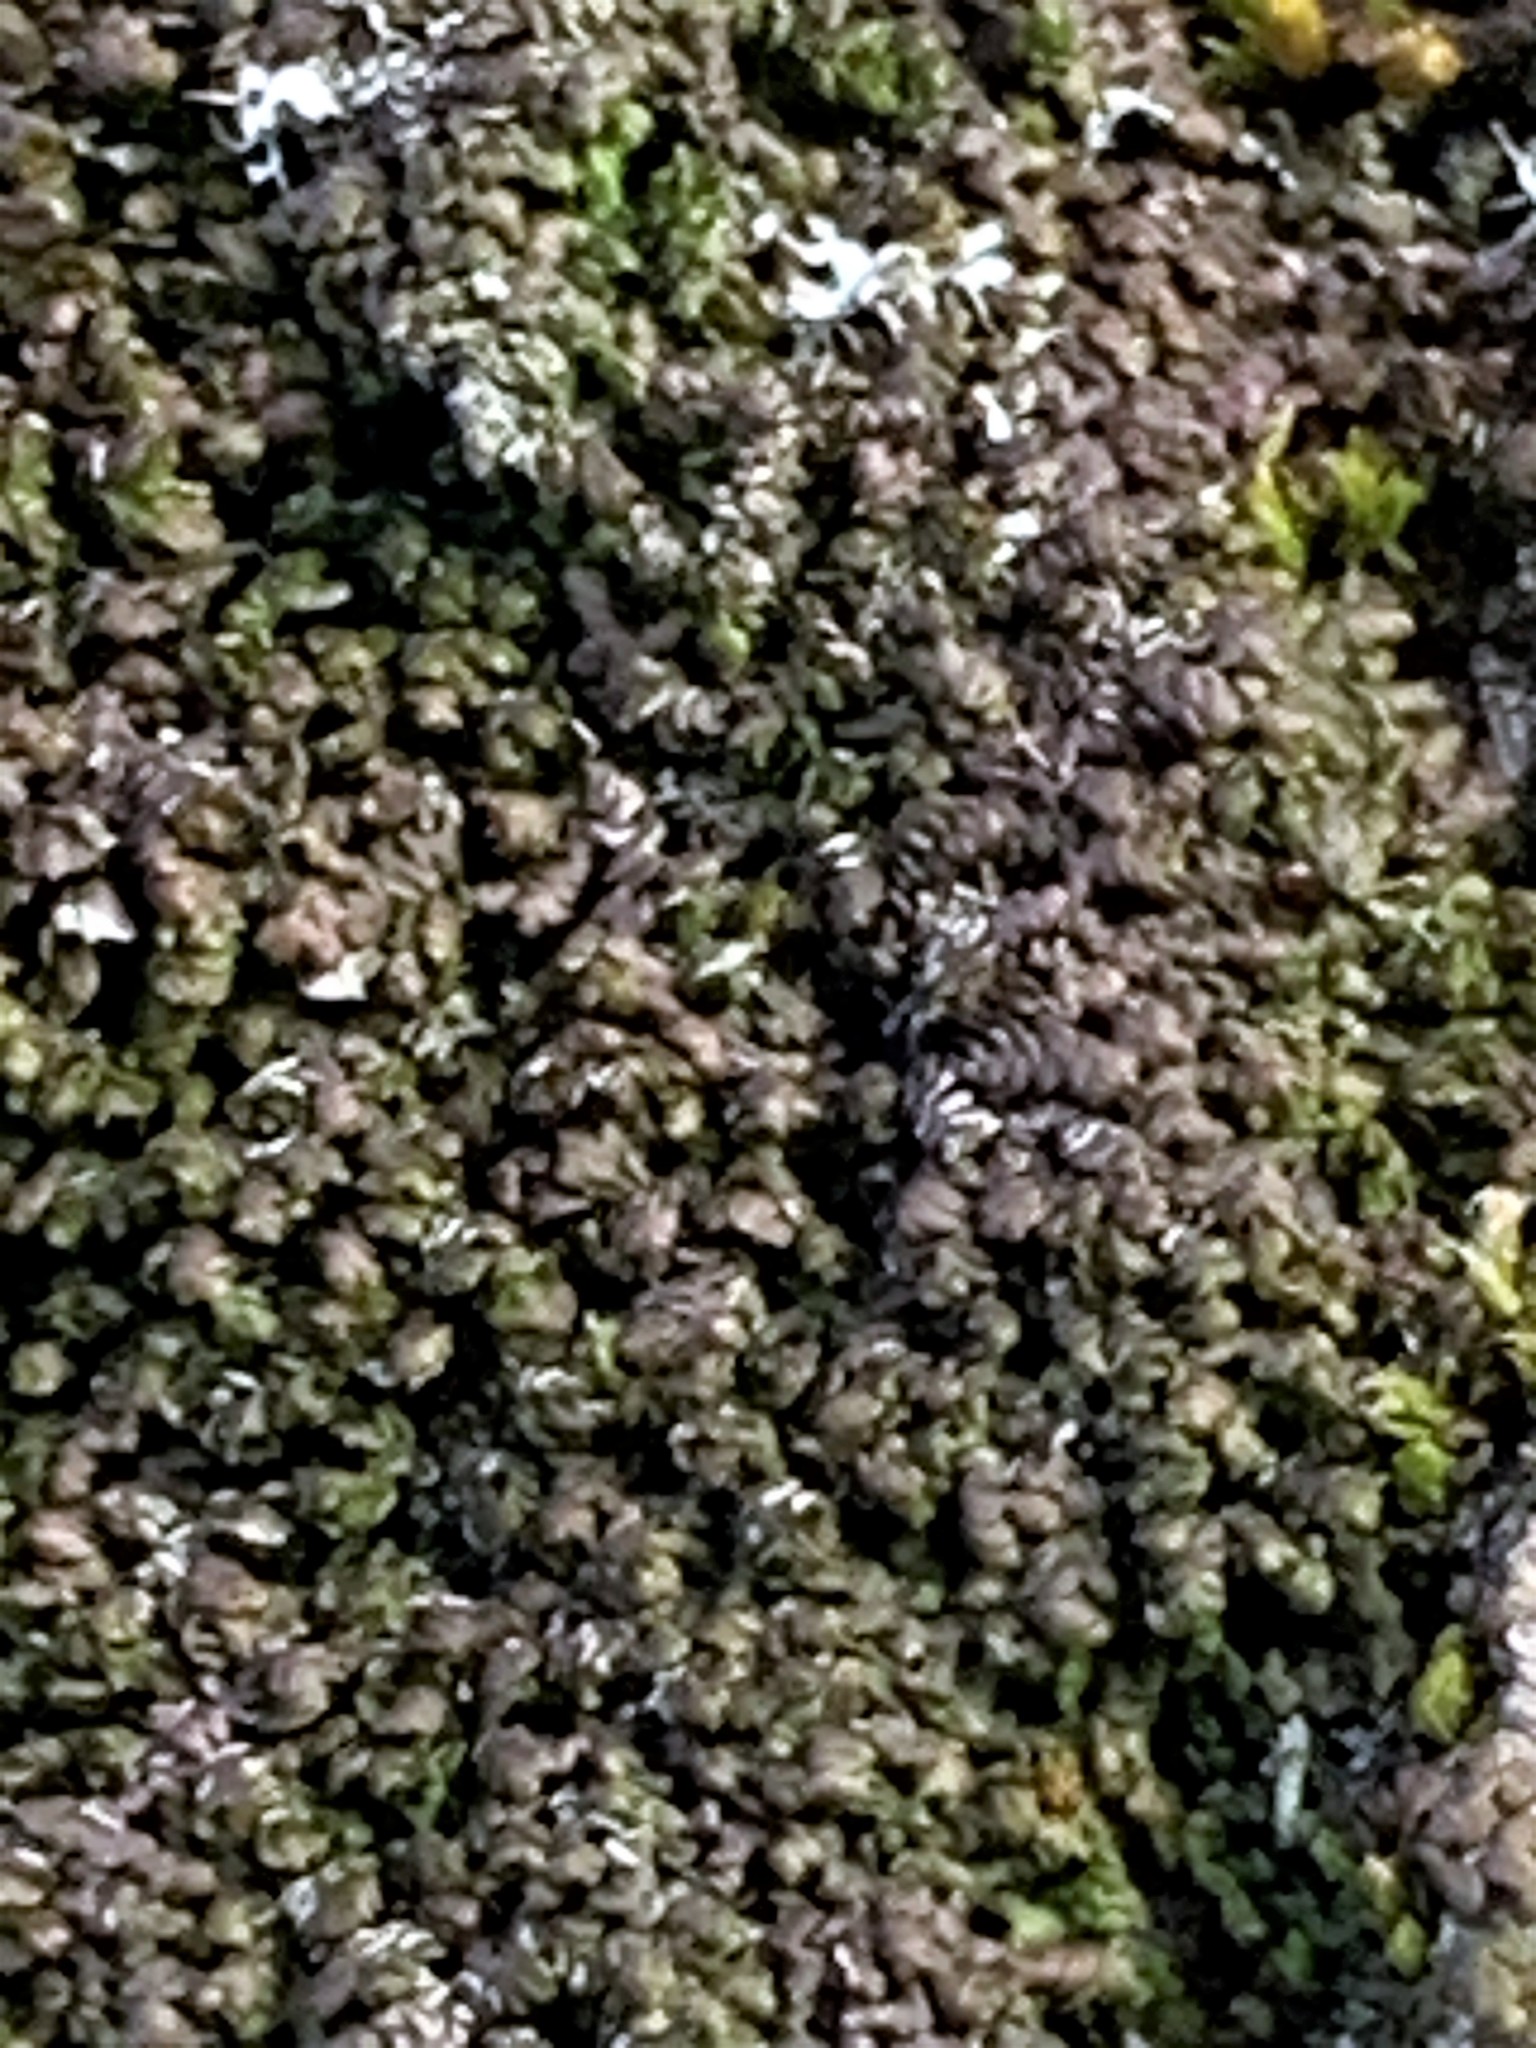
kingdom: Plantae
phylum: Marchantiophyta
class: Jungermanniopsida
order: Porellales
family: Frullaniaceae
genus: Frullania
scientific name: Frullania dilatata
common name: Dilated scalewort
